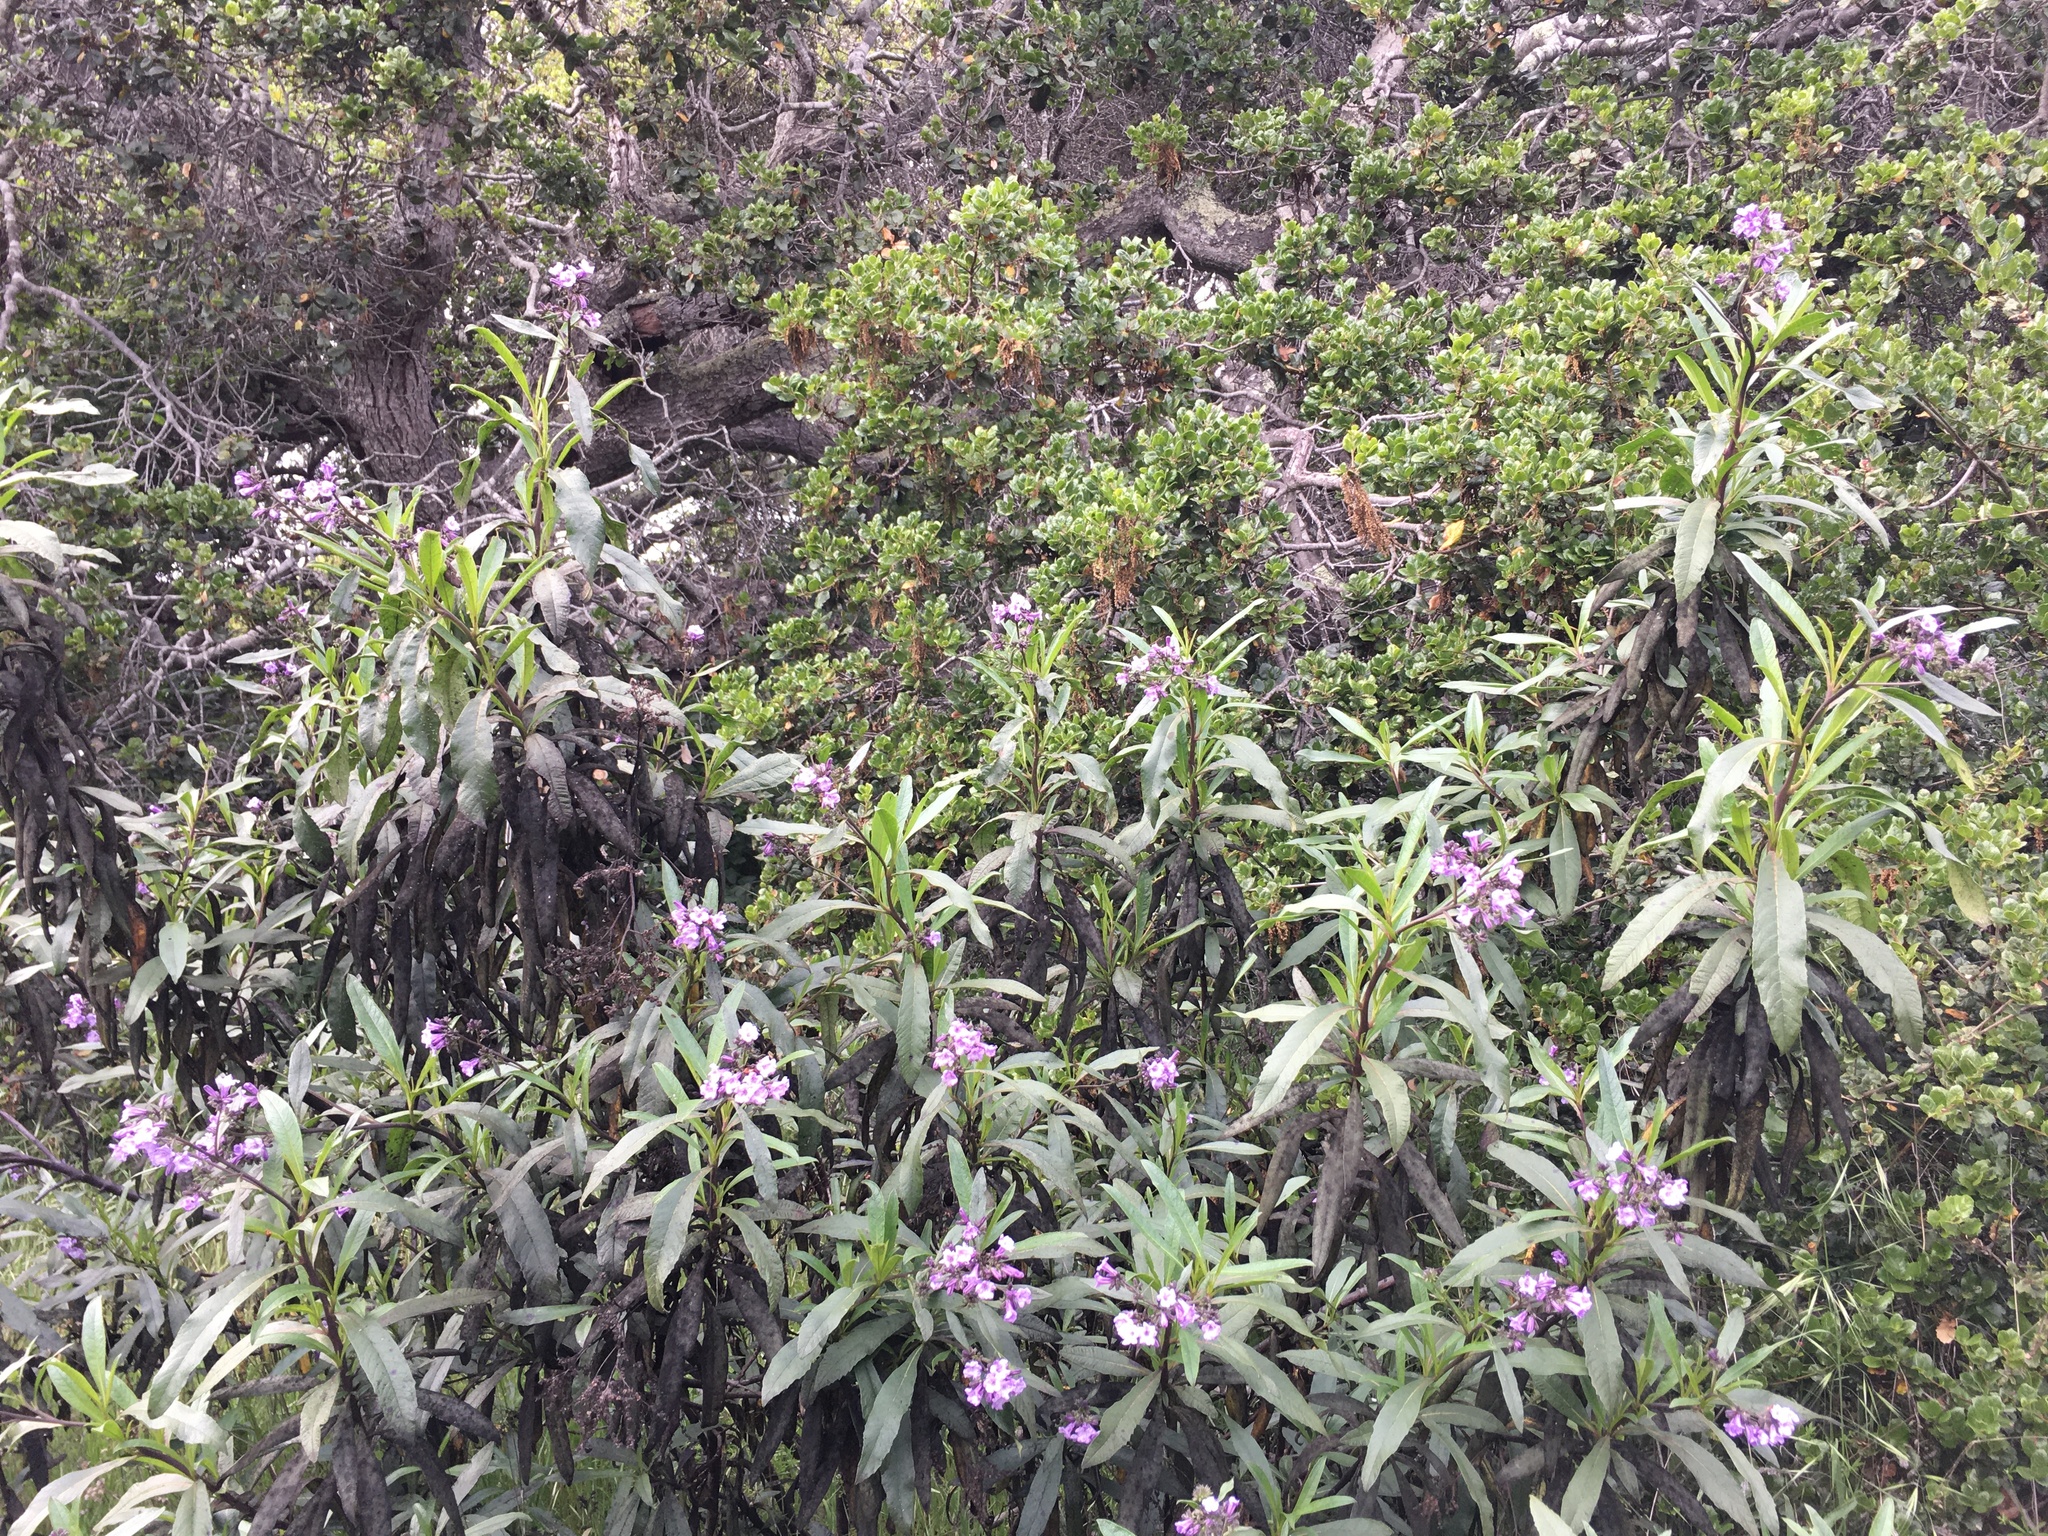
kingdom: Plantae
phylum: Tracheophyta
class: Magnoliopsida
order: Boraginales
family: Namaceae
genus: Eriodictyon
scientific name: Eriodictyon californicum
